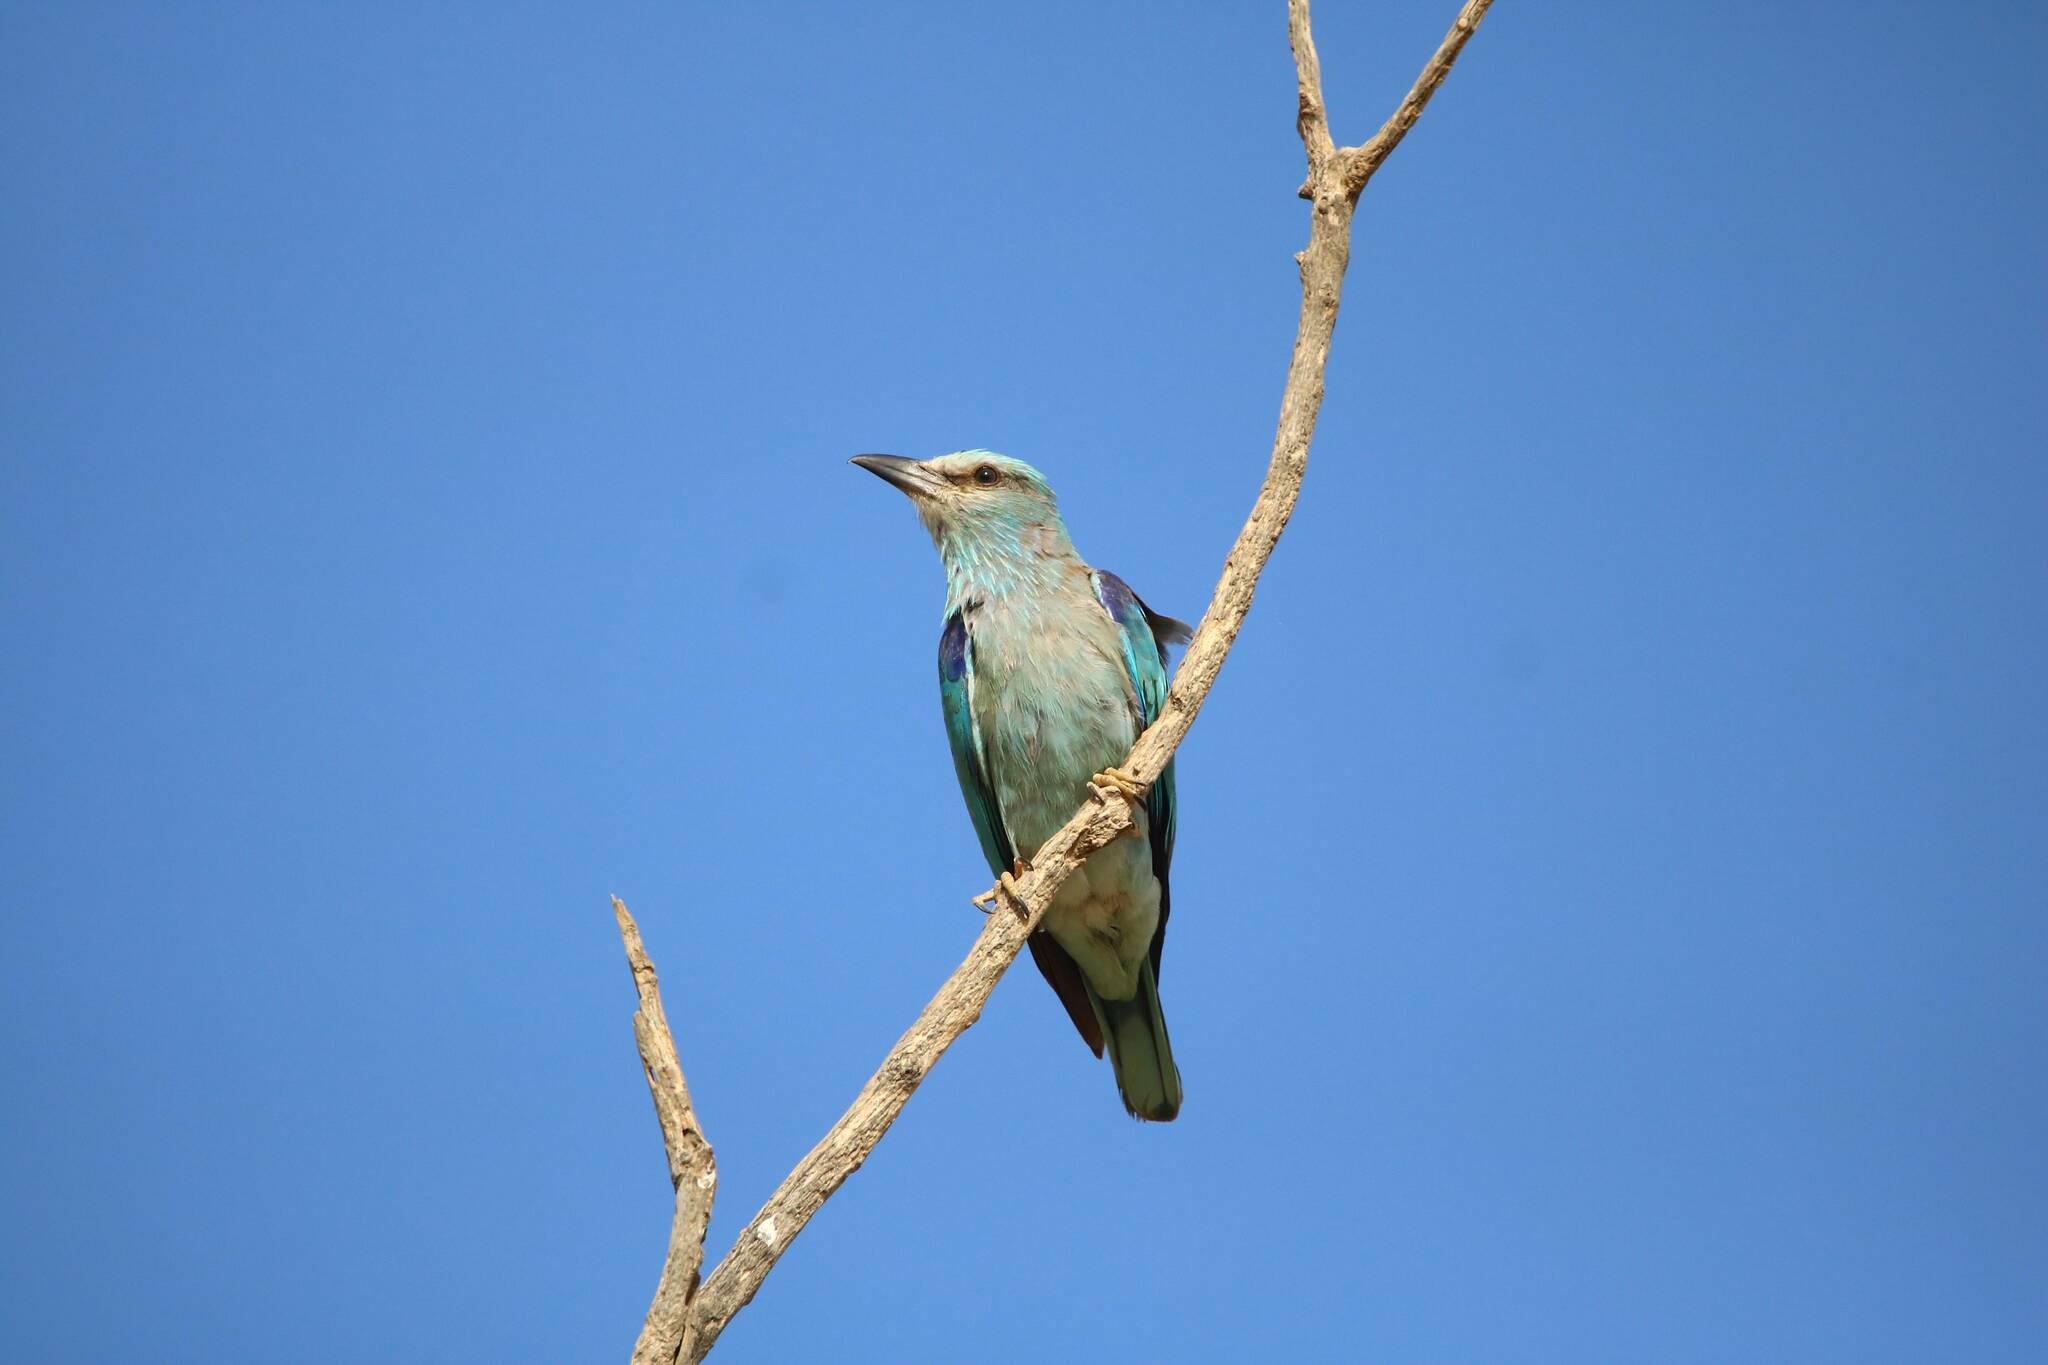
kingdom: Animalia
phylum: Chordata
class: Aves
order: Coraciiformes
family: Coraciidae
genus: Coracias
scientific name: Coracias garrulus
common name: European roller
